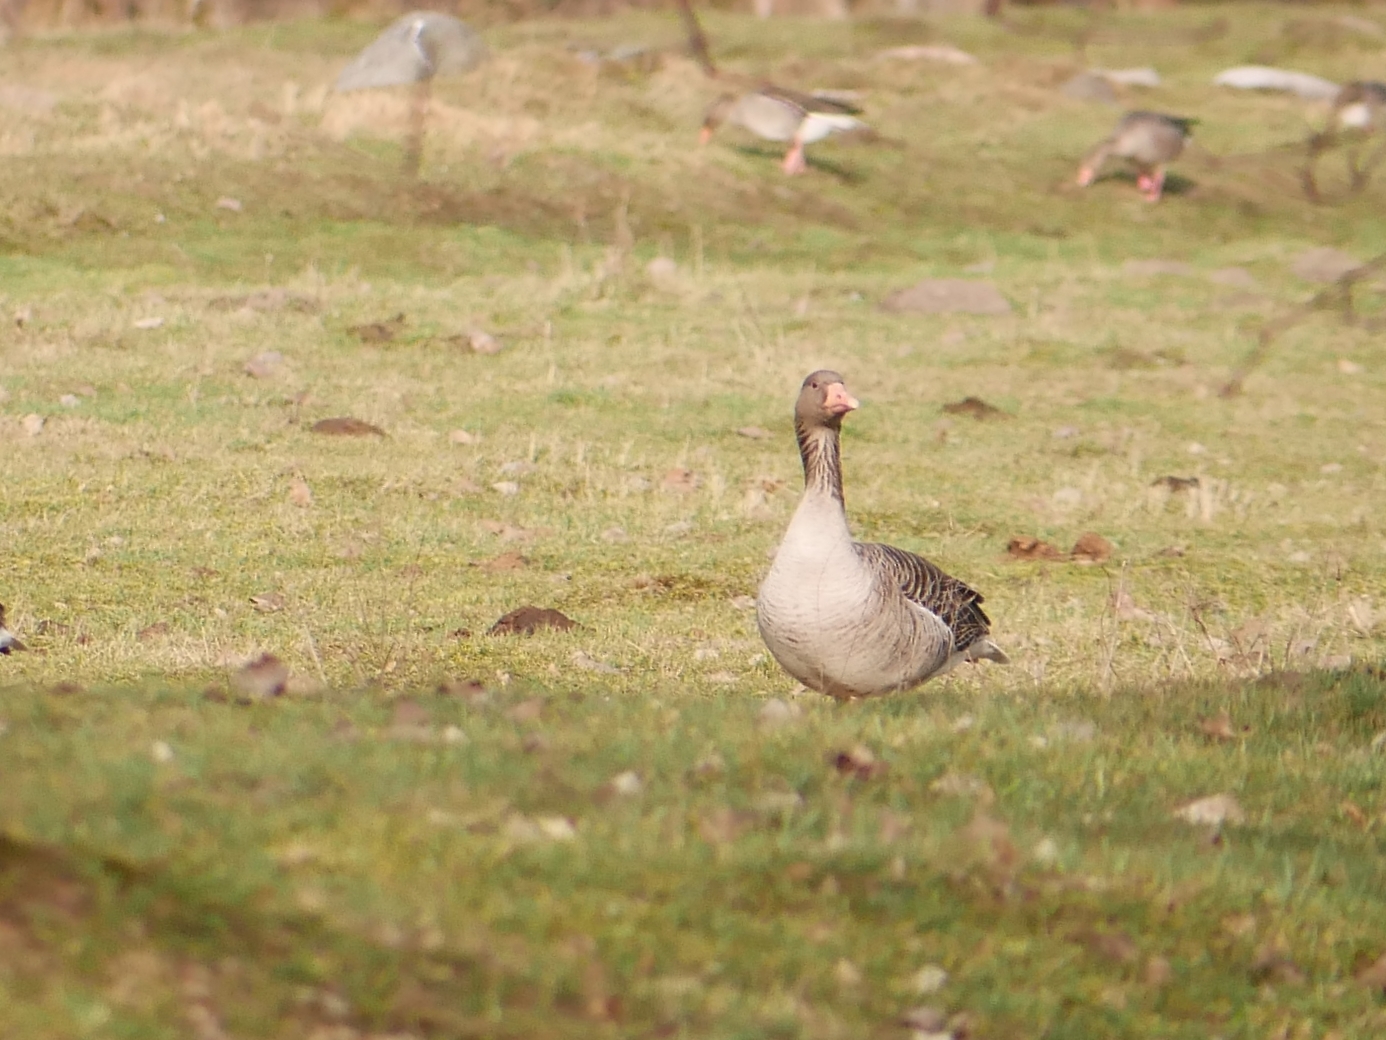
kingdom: Animalia
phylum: Chordata
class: Aves
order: Anseriformes
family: Anatidae
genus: Anser
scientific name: Anser anser
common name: Greylag goose
